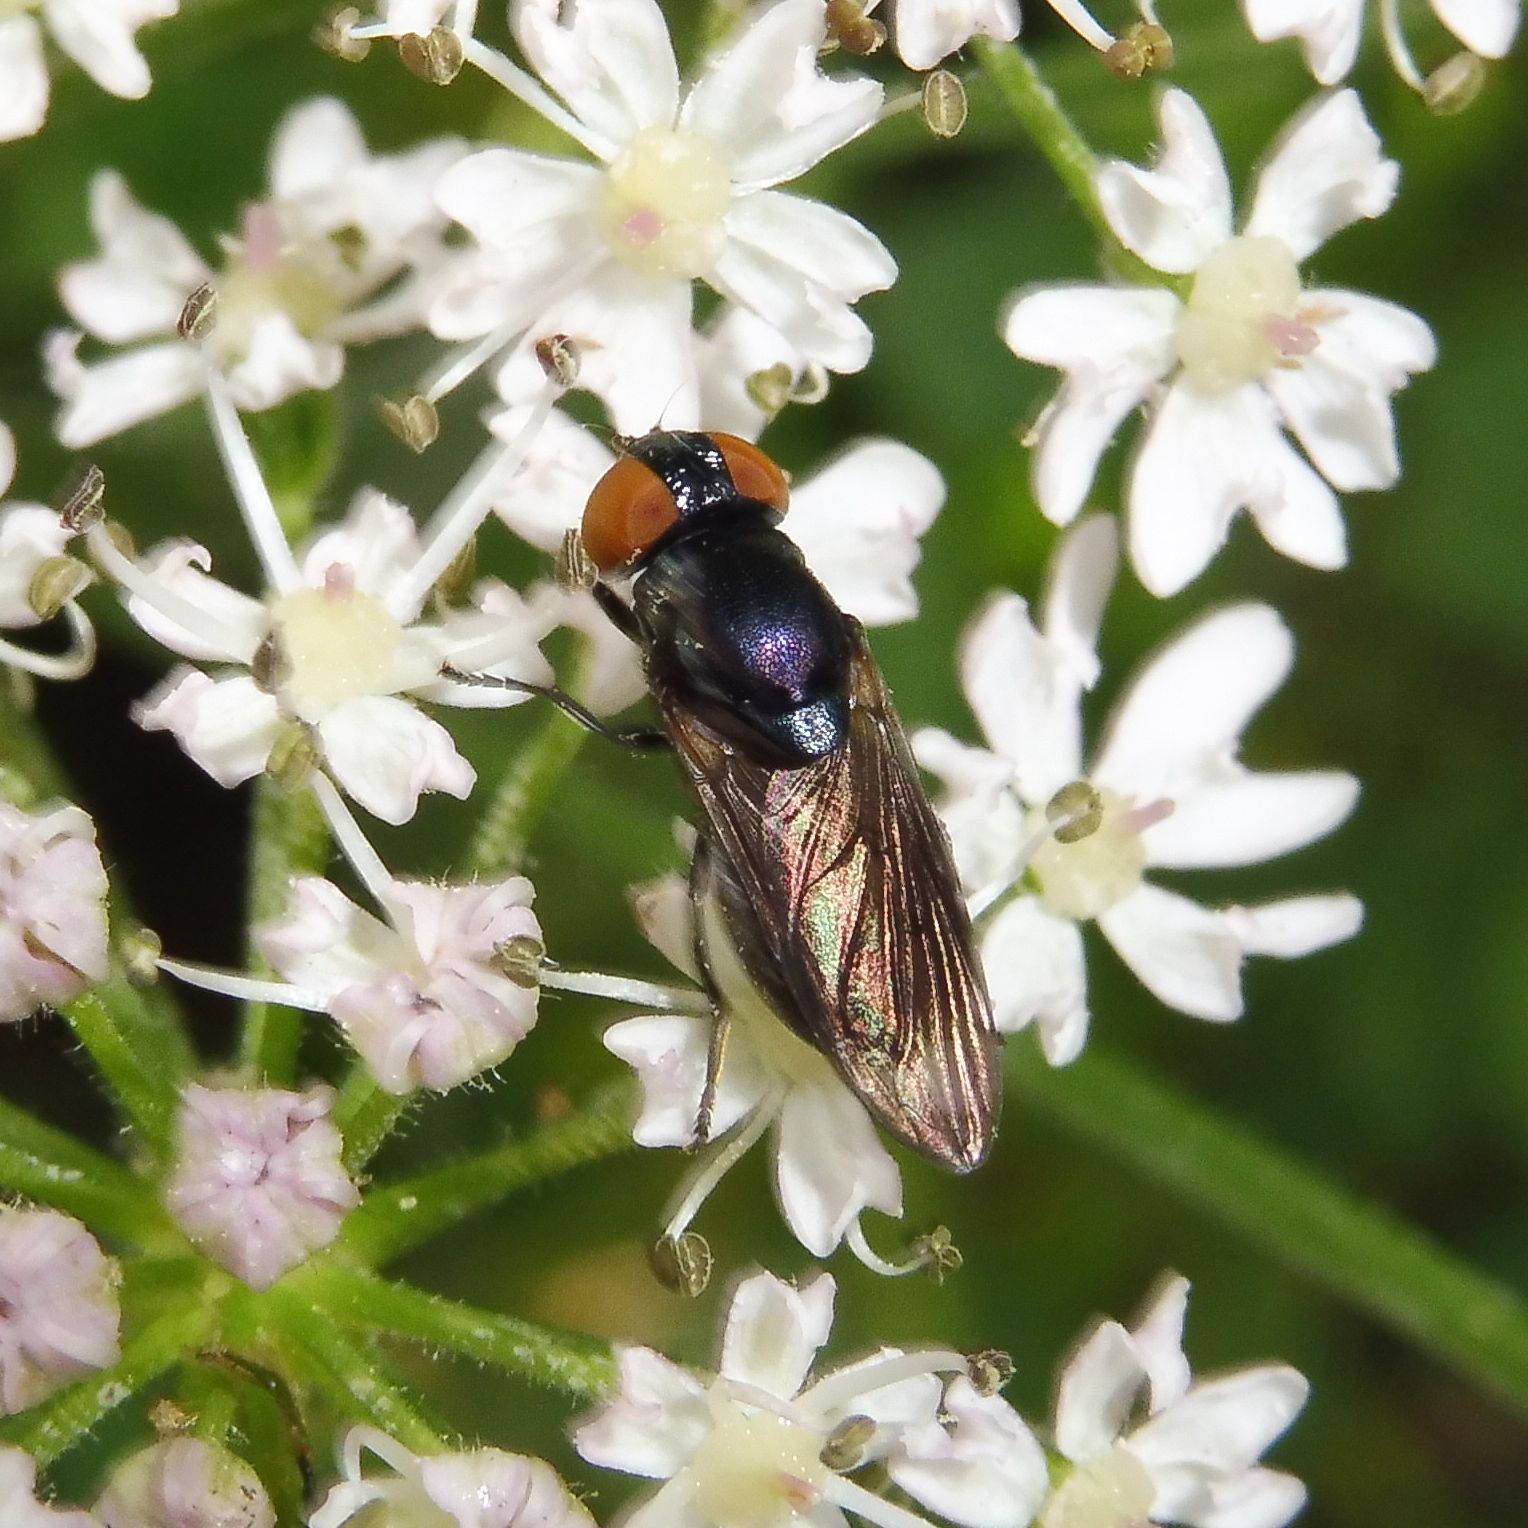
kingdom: Animalia
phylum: Arthropoda
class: Insecta
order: Diptera
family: Syrphidae
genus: Chrysogaster
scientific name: Chrysogaster solstitialis
